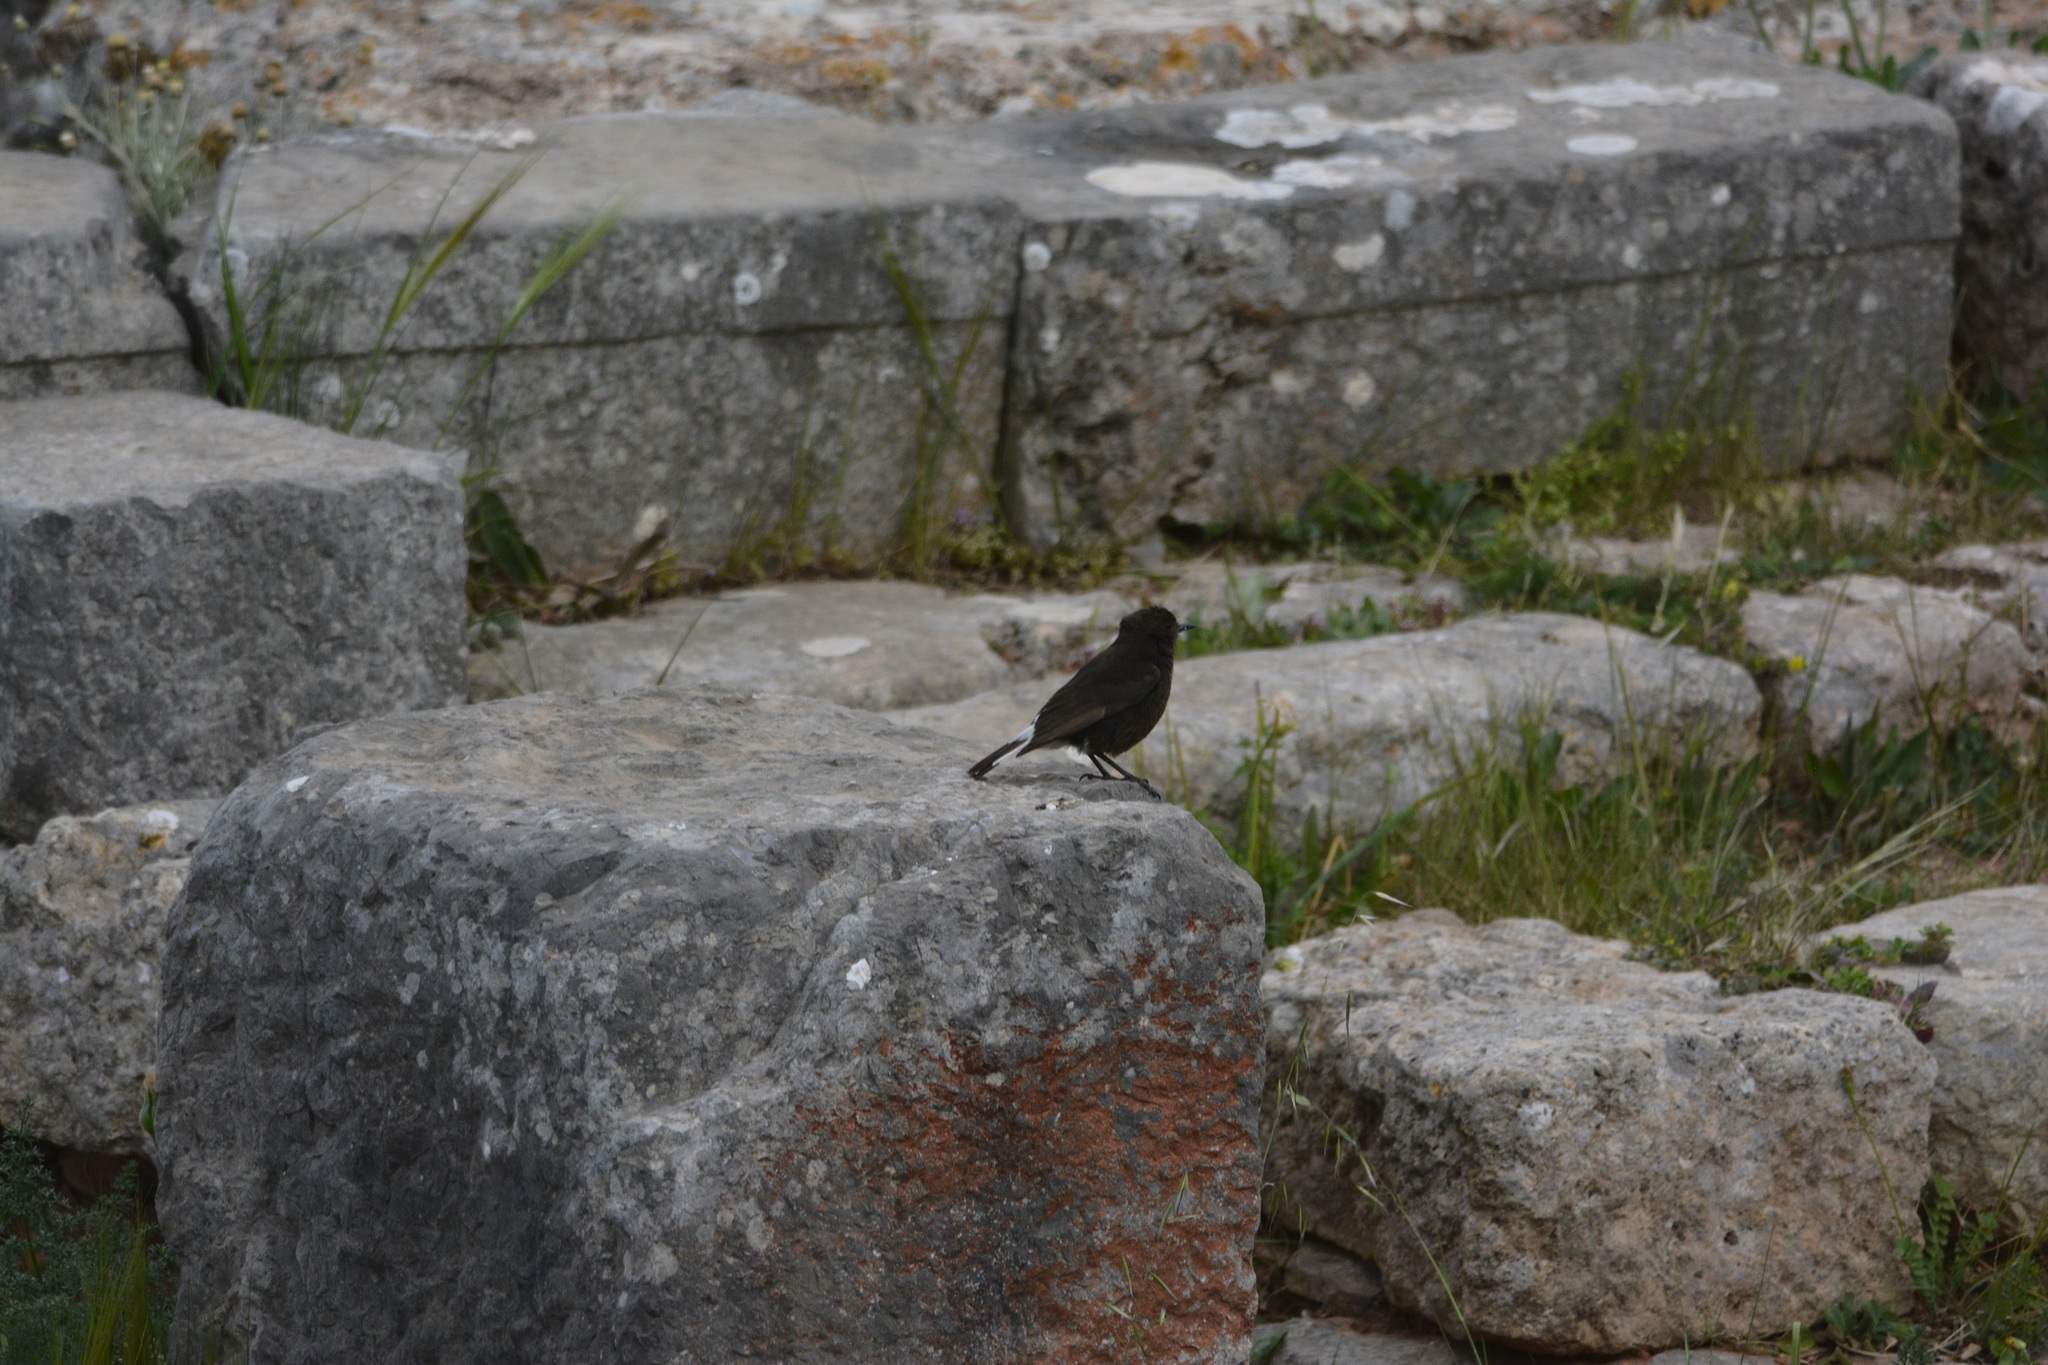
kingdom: Animalia
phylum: Chordata
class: Aves
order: Passeriformes
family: Muscicapidae
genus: Oenanthe
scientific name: Oenanthe leucura
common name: Black wheatear
